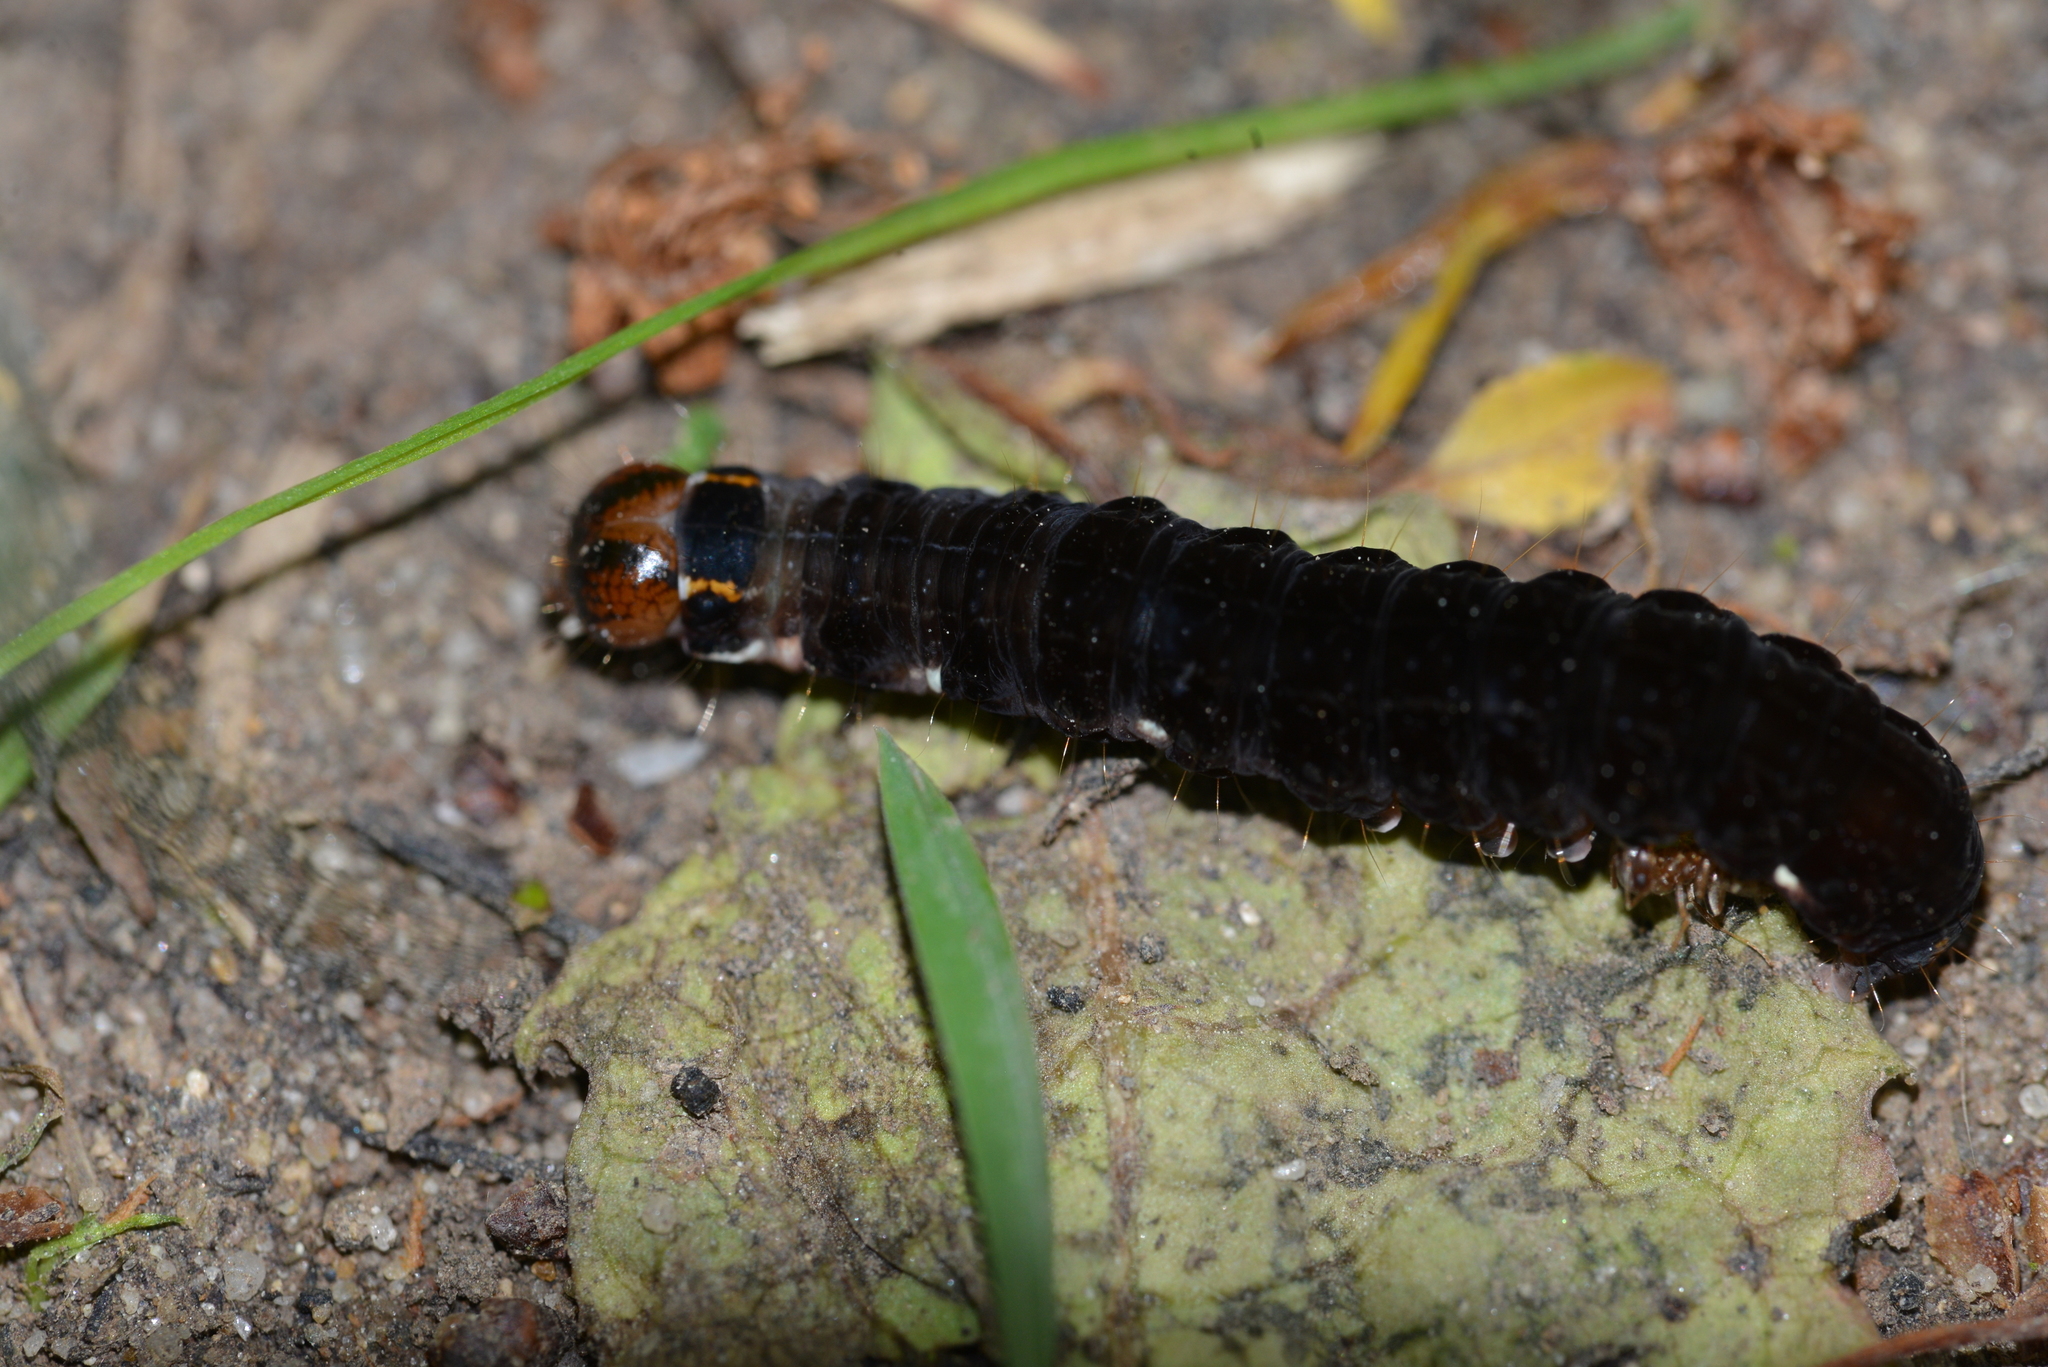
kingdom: Animalia
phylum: Arthropoda
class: Insecta
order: Lepidoptera
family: Noctuidae
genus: Eupsilia
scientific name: Eupsilia transversa
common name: Satellite
